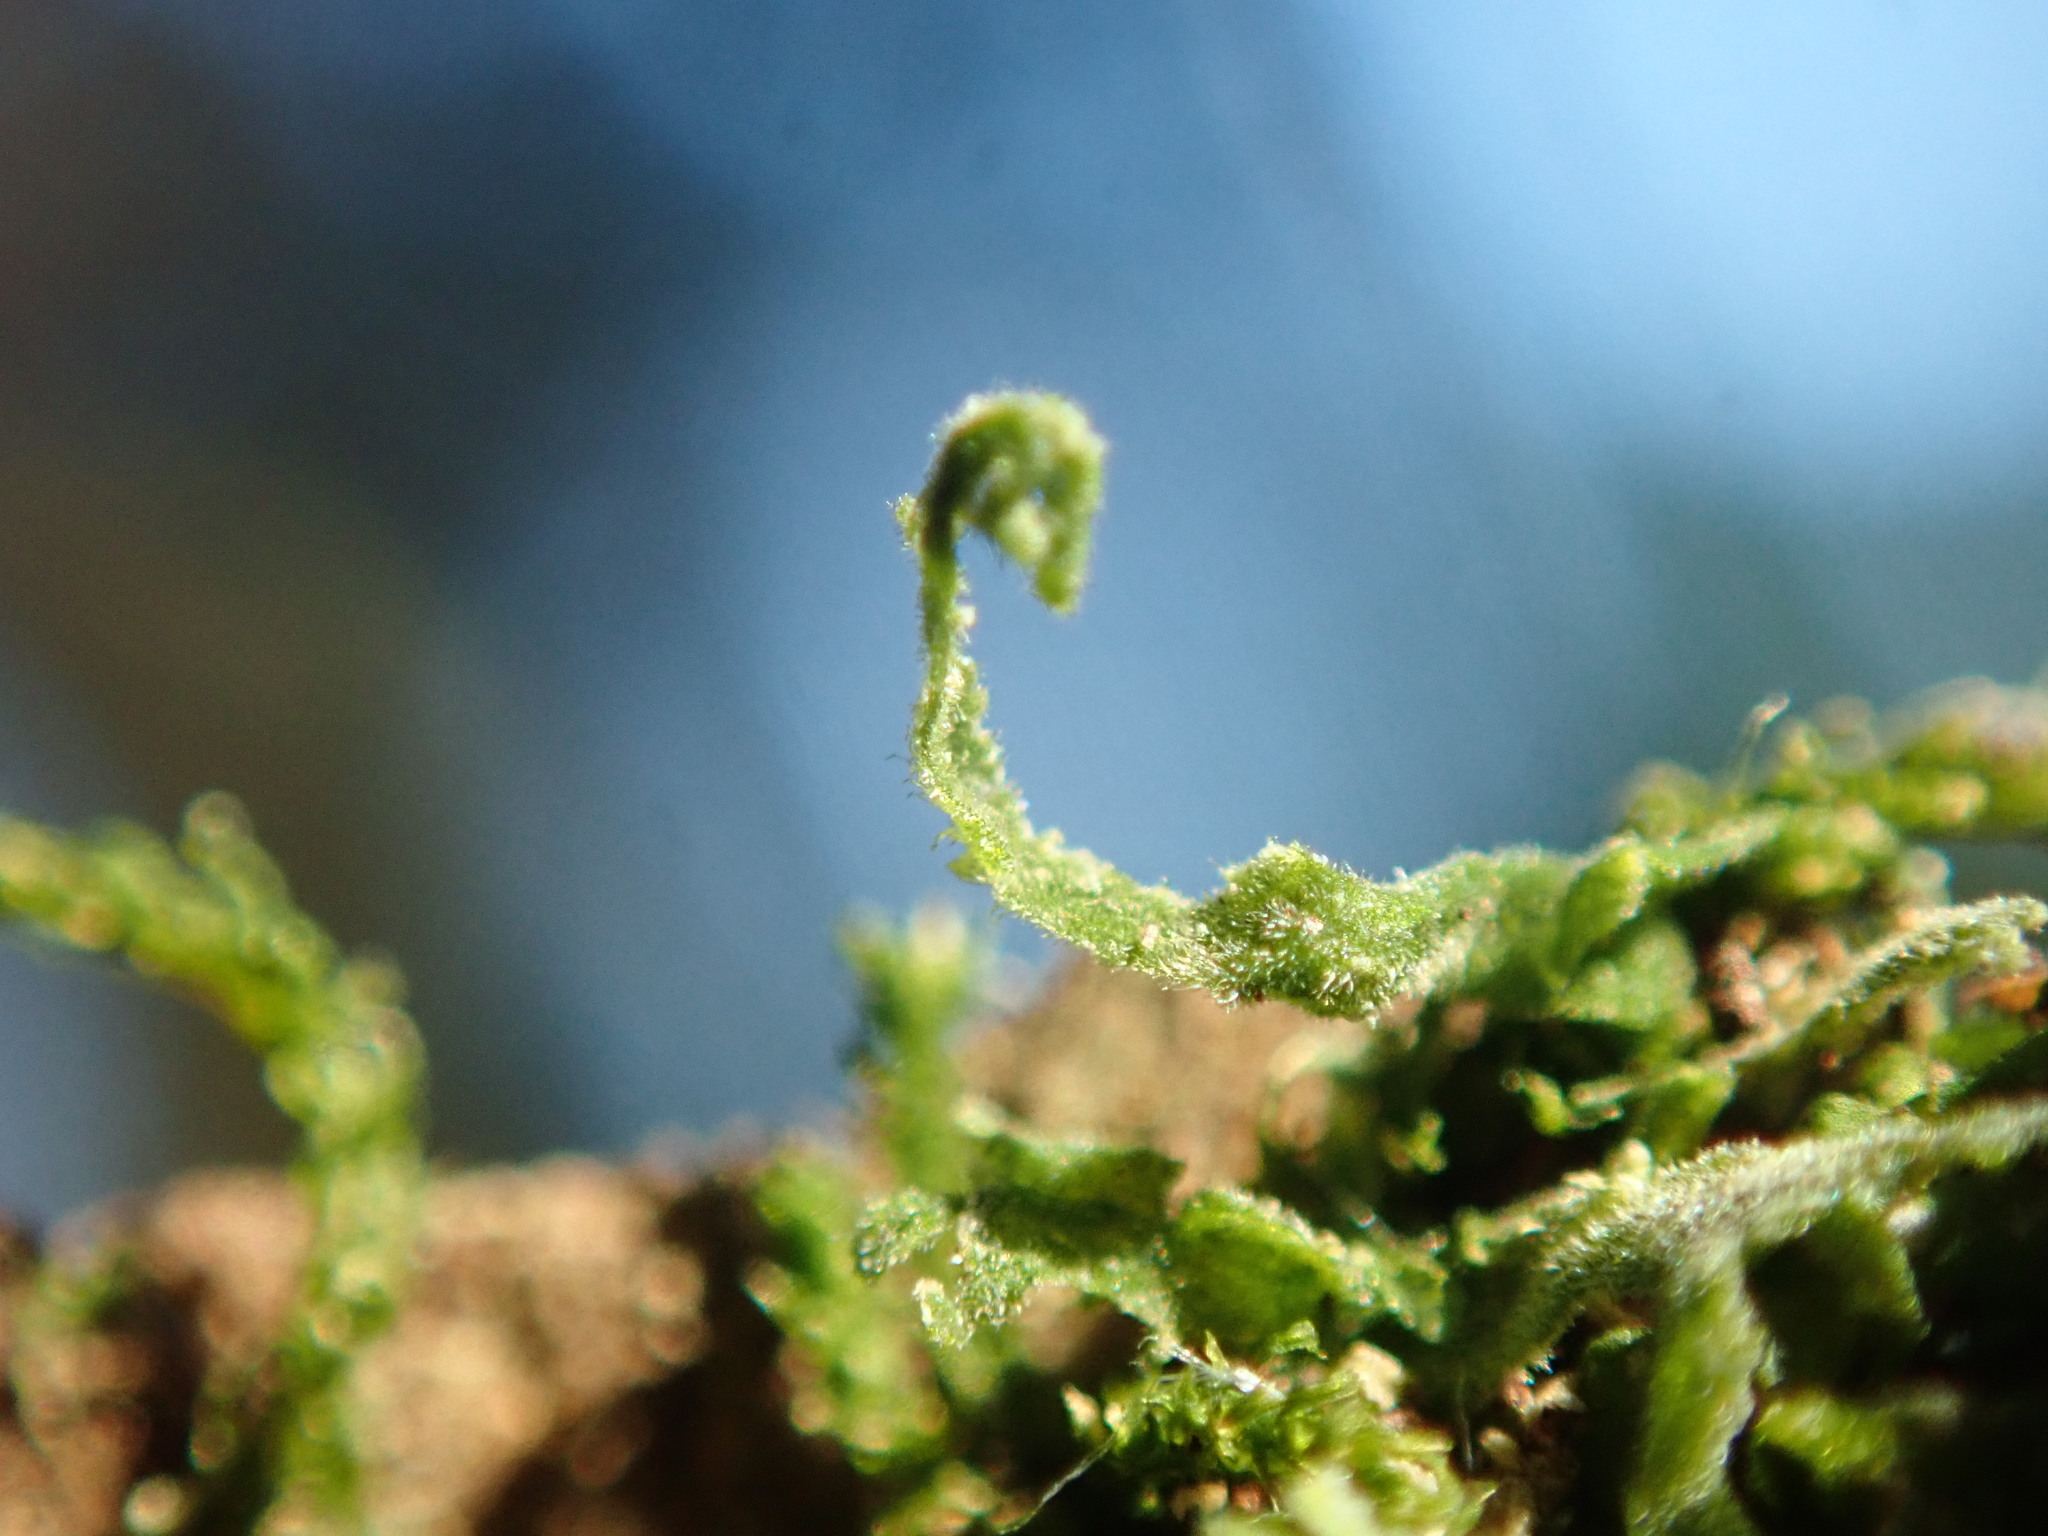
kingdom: Plantae
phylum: Marchantiophyta
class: Jungermanniopsida
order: Metzgeriales
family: Metzgeriaceae
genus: Metzgeria
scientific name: Metzgeria pubescens
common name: Downy veilwort
